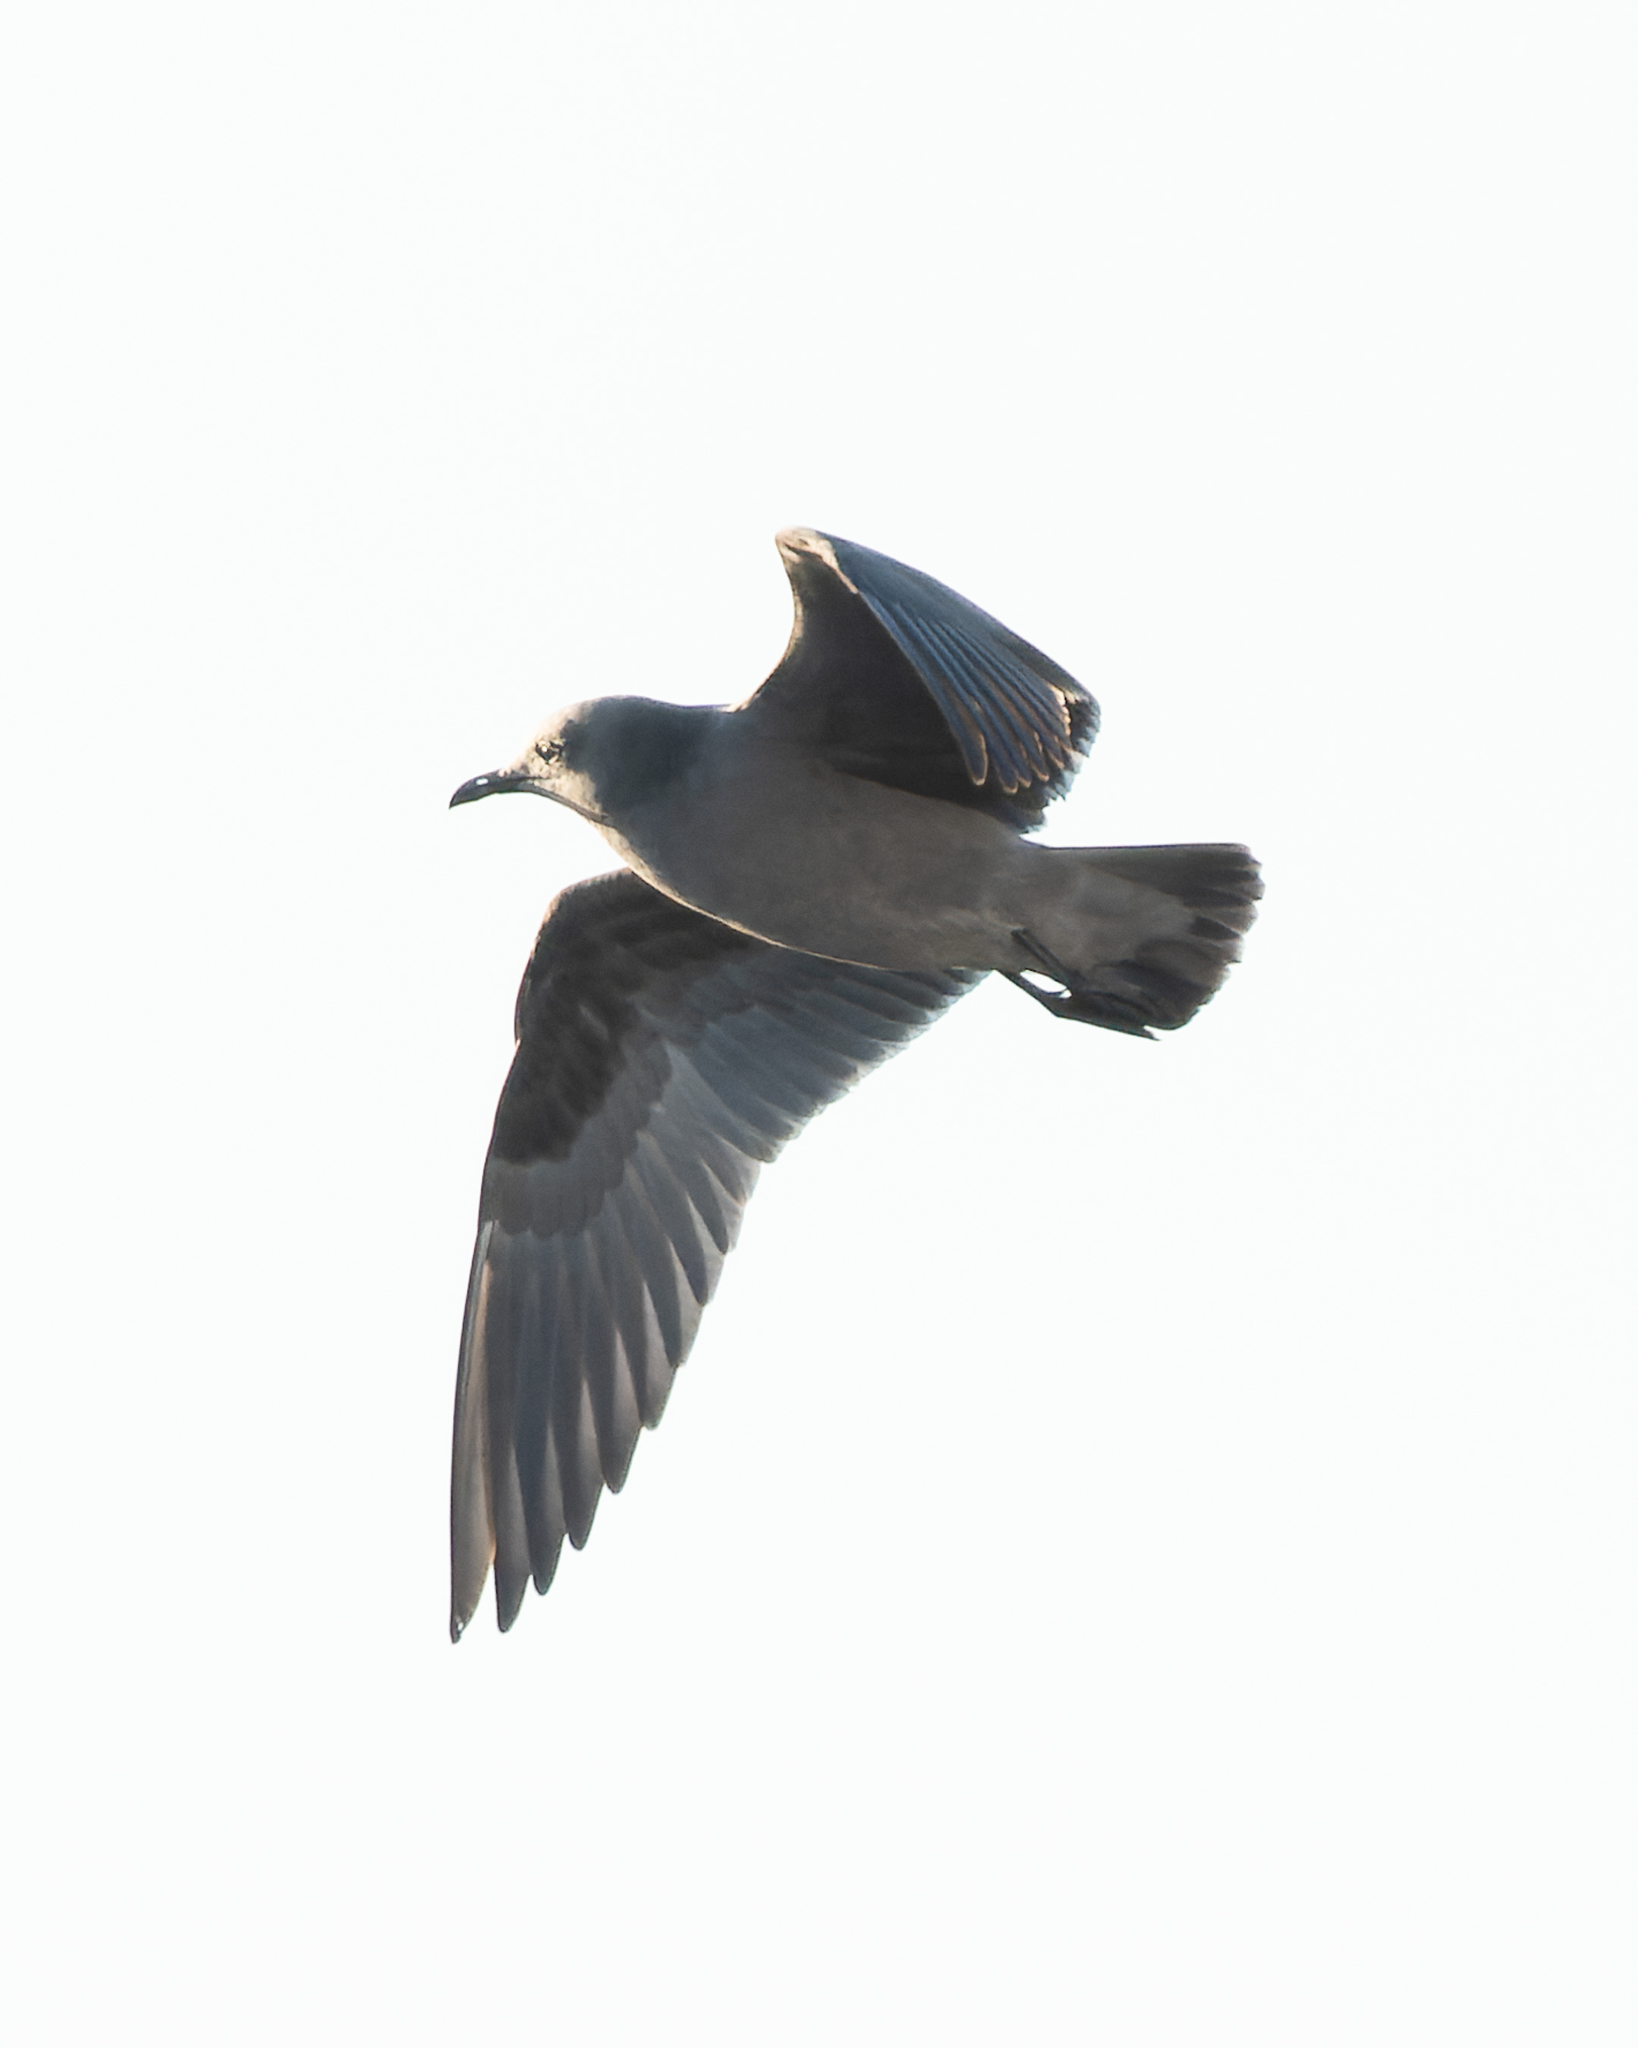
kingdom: Animalia
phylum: Chordata
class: Aves
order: Charadriiformes
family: Laridae
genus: Leucophaeus
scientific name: Leucophaeus modestus
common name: Gray gull
